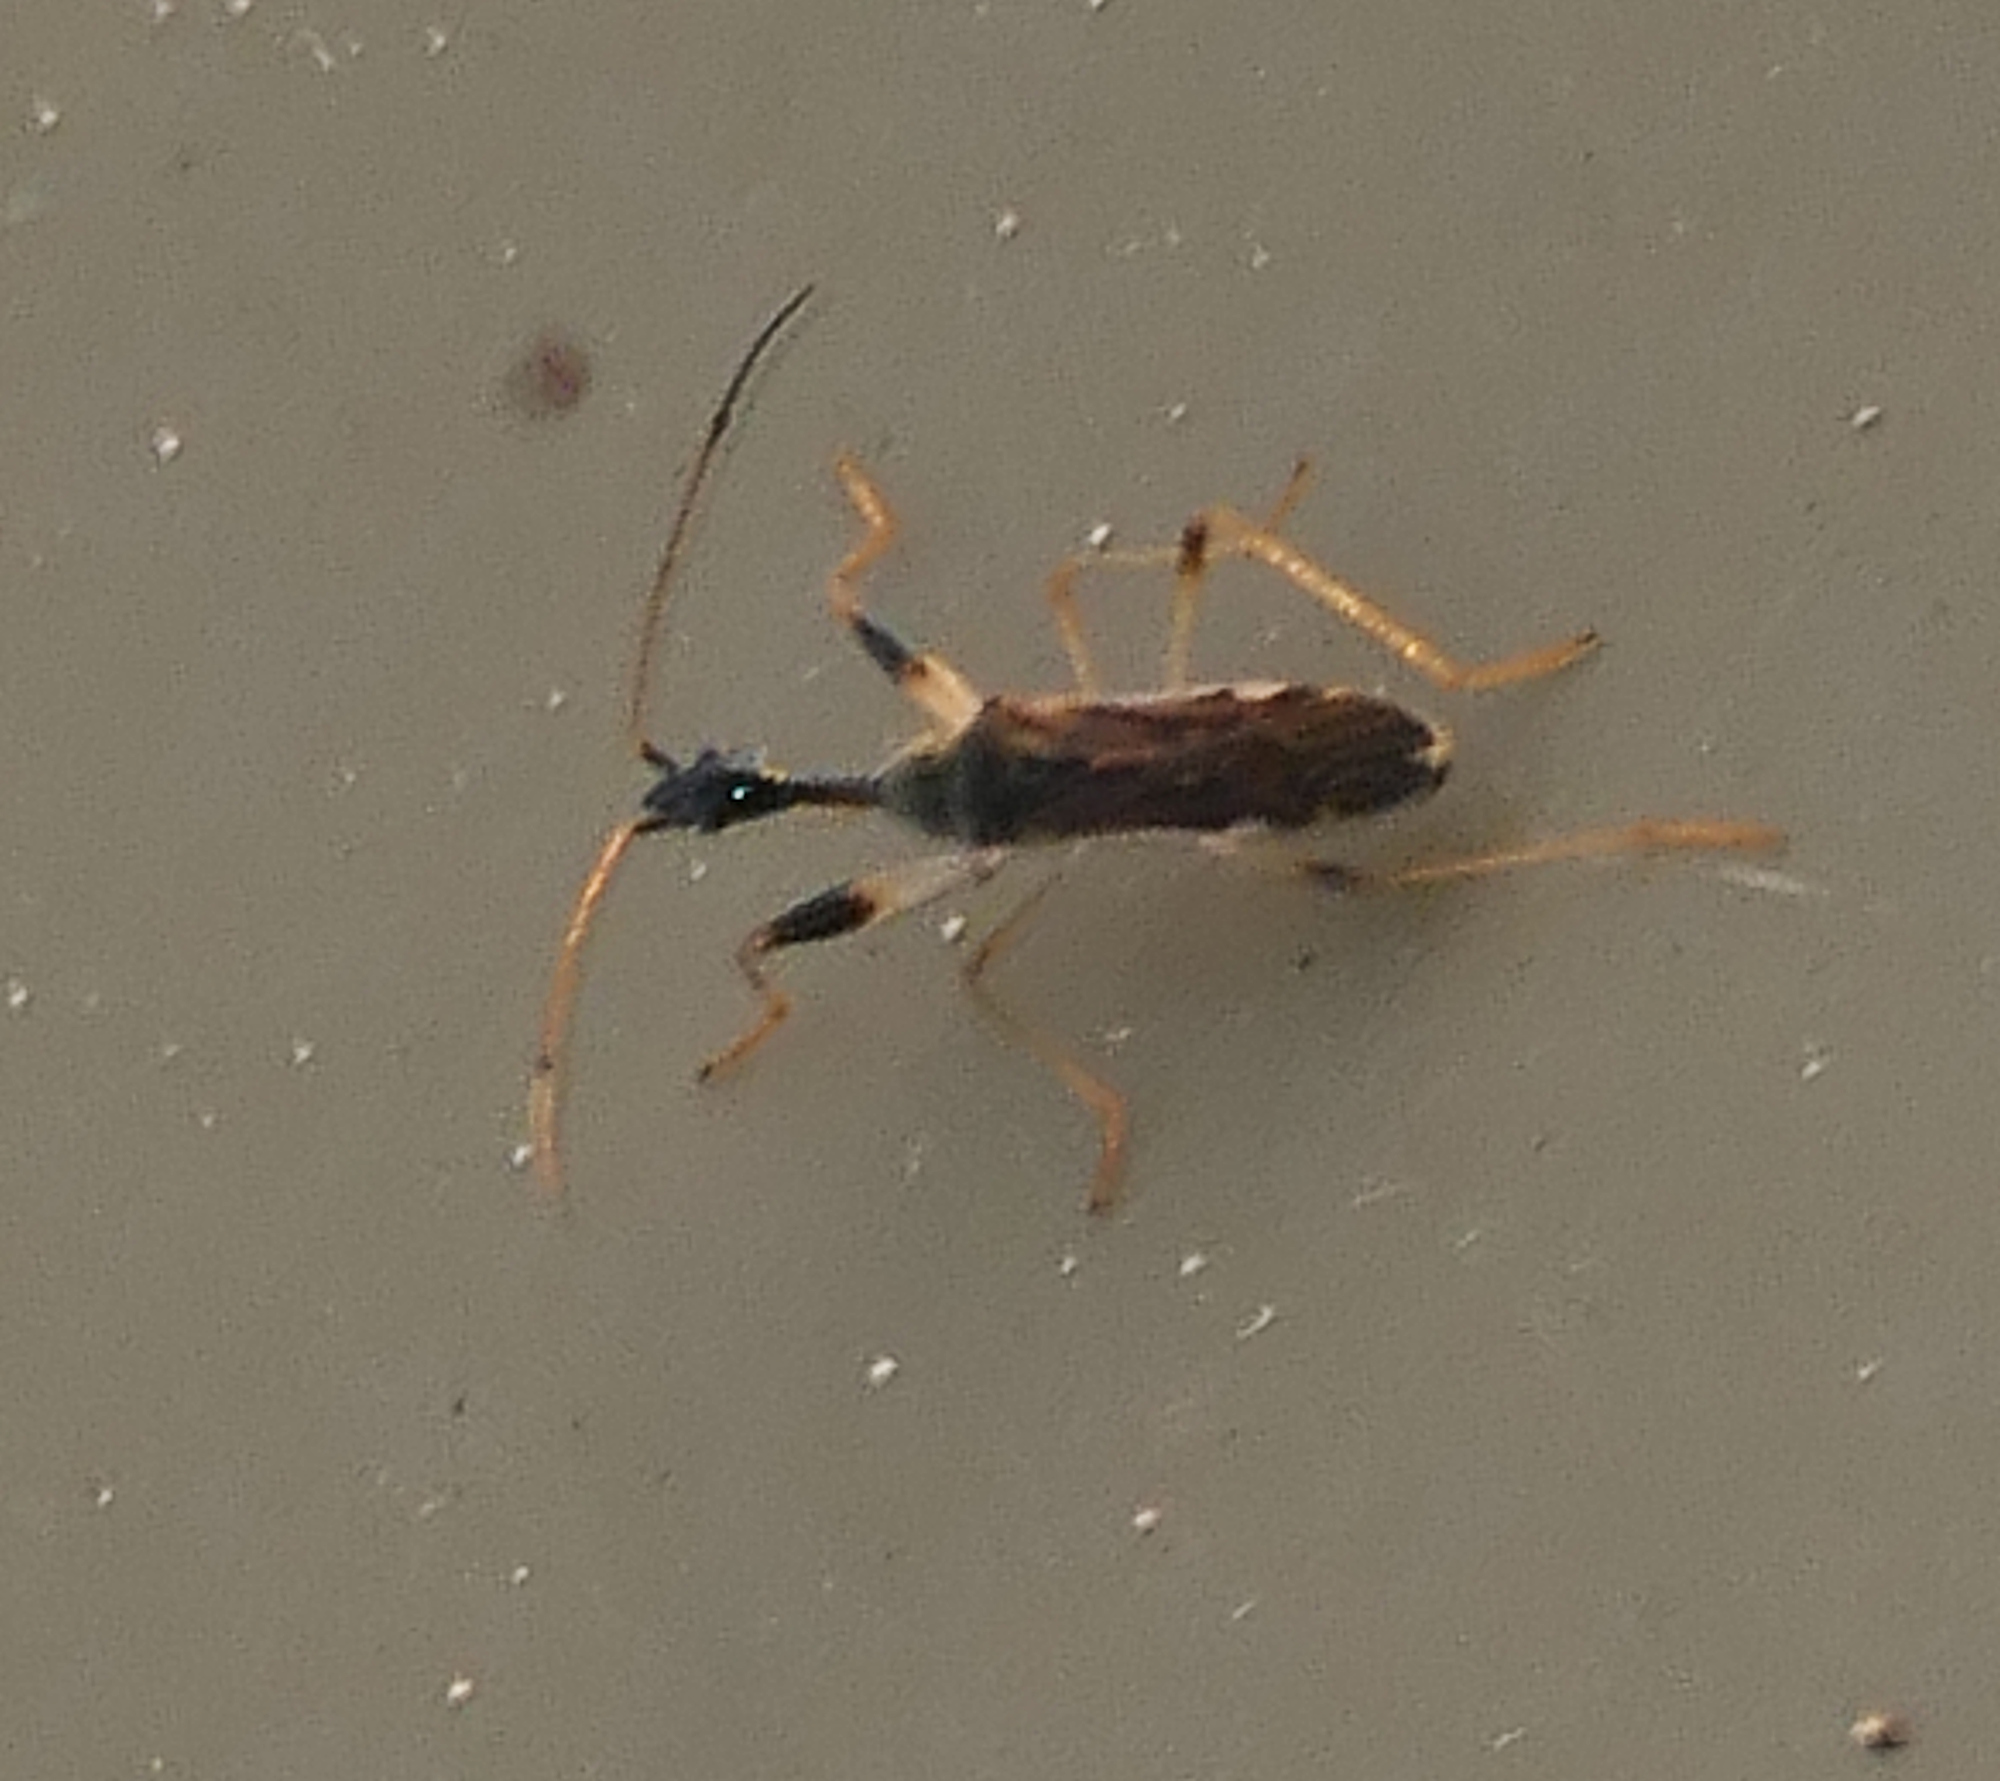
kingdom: Animalia
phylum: Arthropoda
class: Insecta
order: Hemiptera
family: Rhyparochromidae
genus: Myodocha
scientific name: Myodocha serripes
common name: Long-necked seed bug
